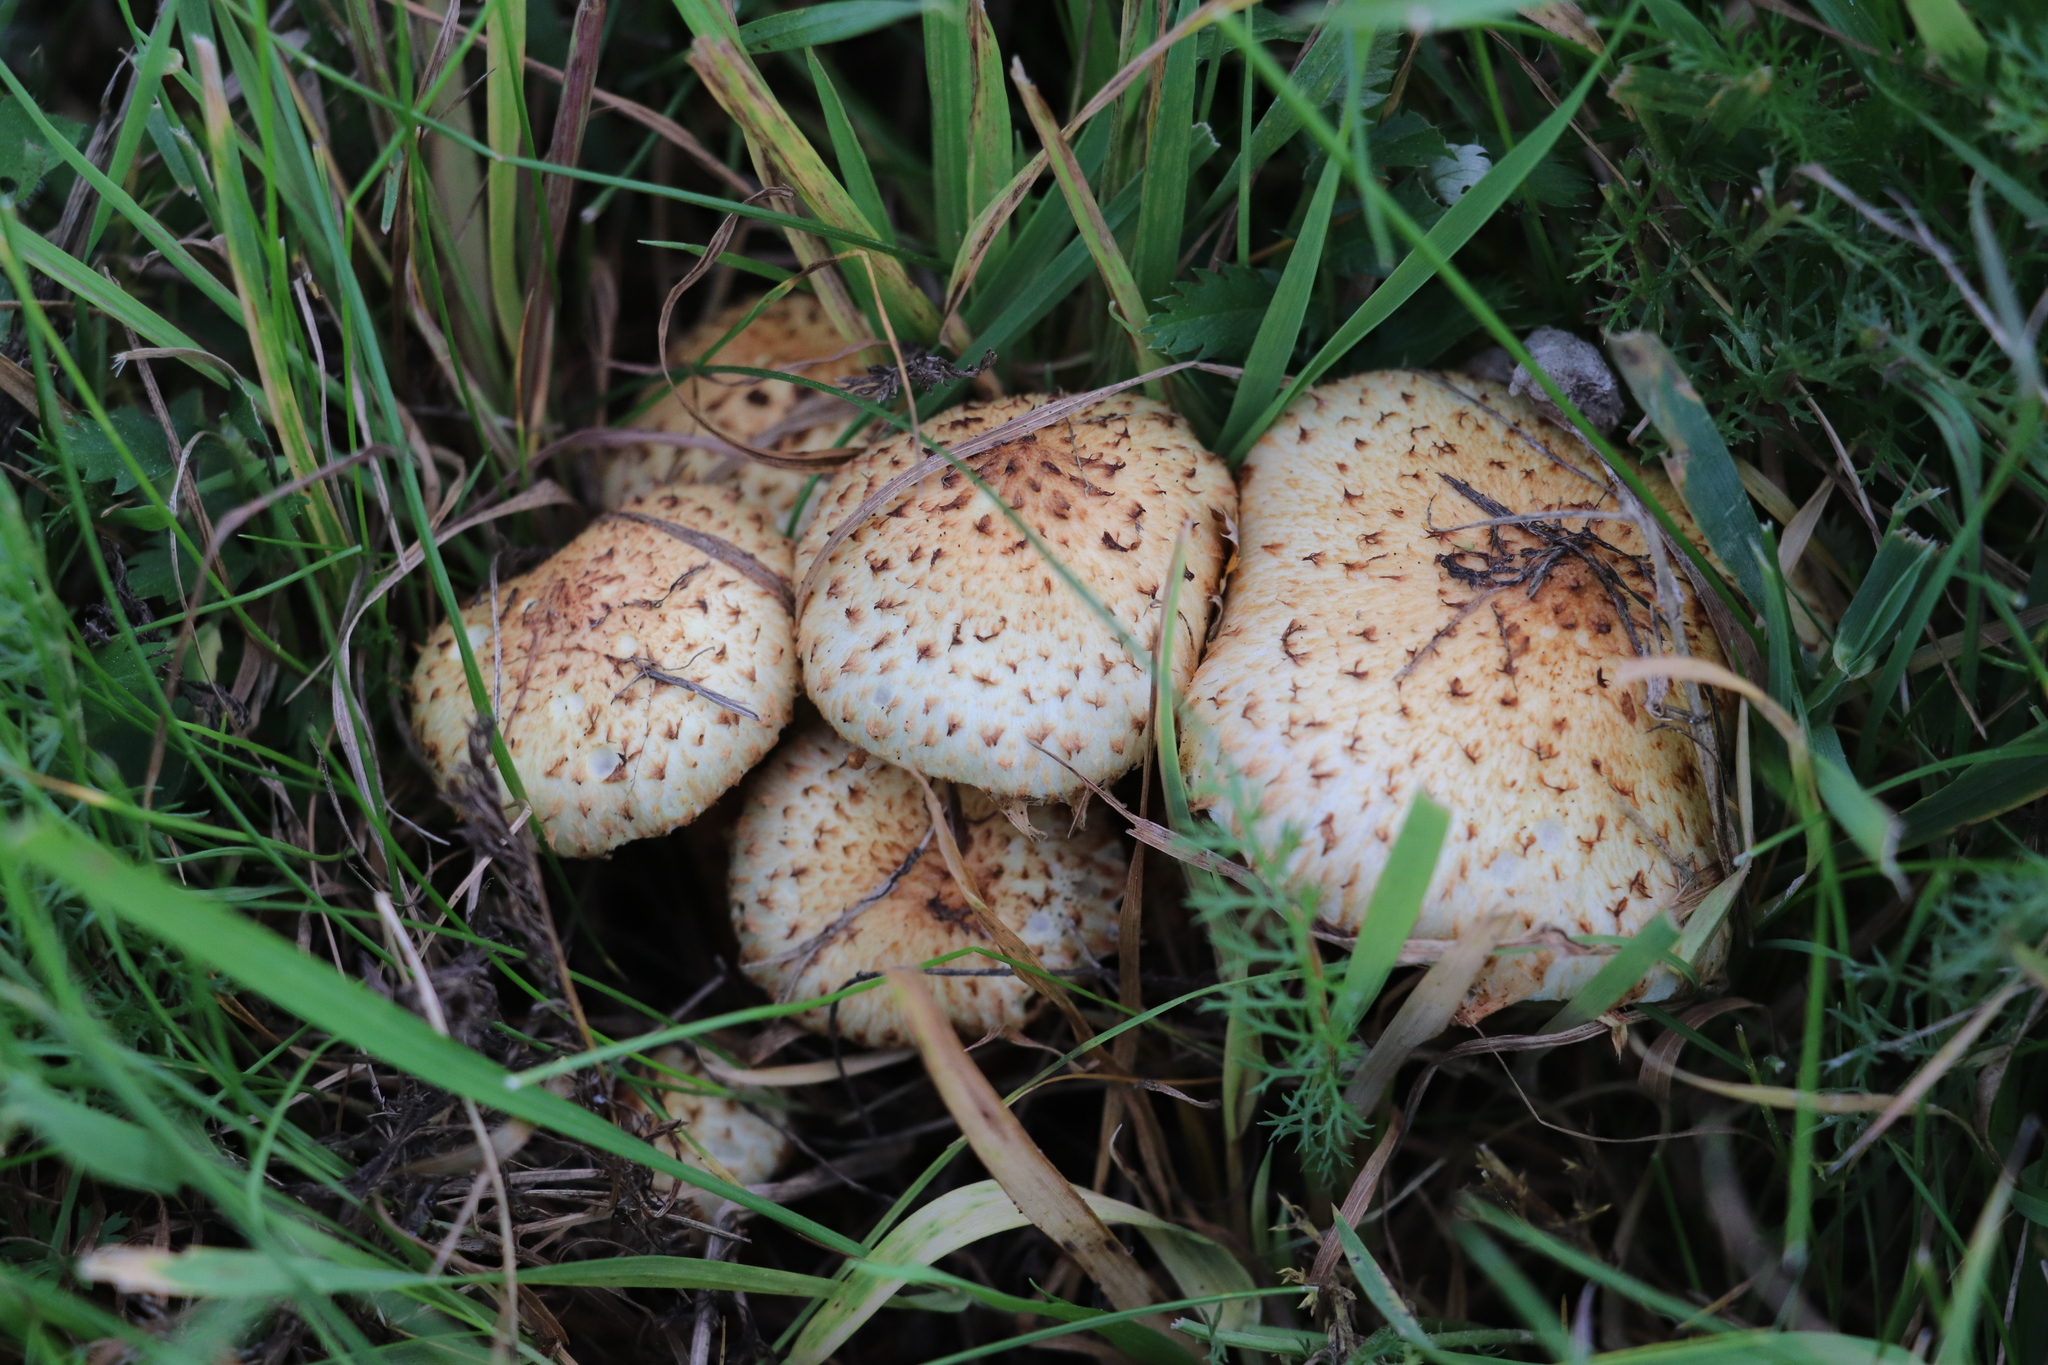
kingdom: Fungi
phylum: Basidiomycota
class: Agaricomycetes
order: Agaricales
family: Strophariaceae
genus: Pholiota
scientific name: Pholiota kodiakensis
